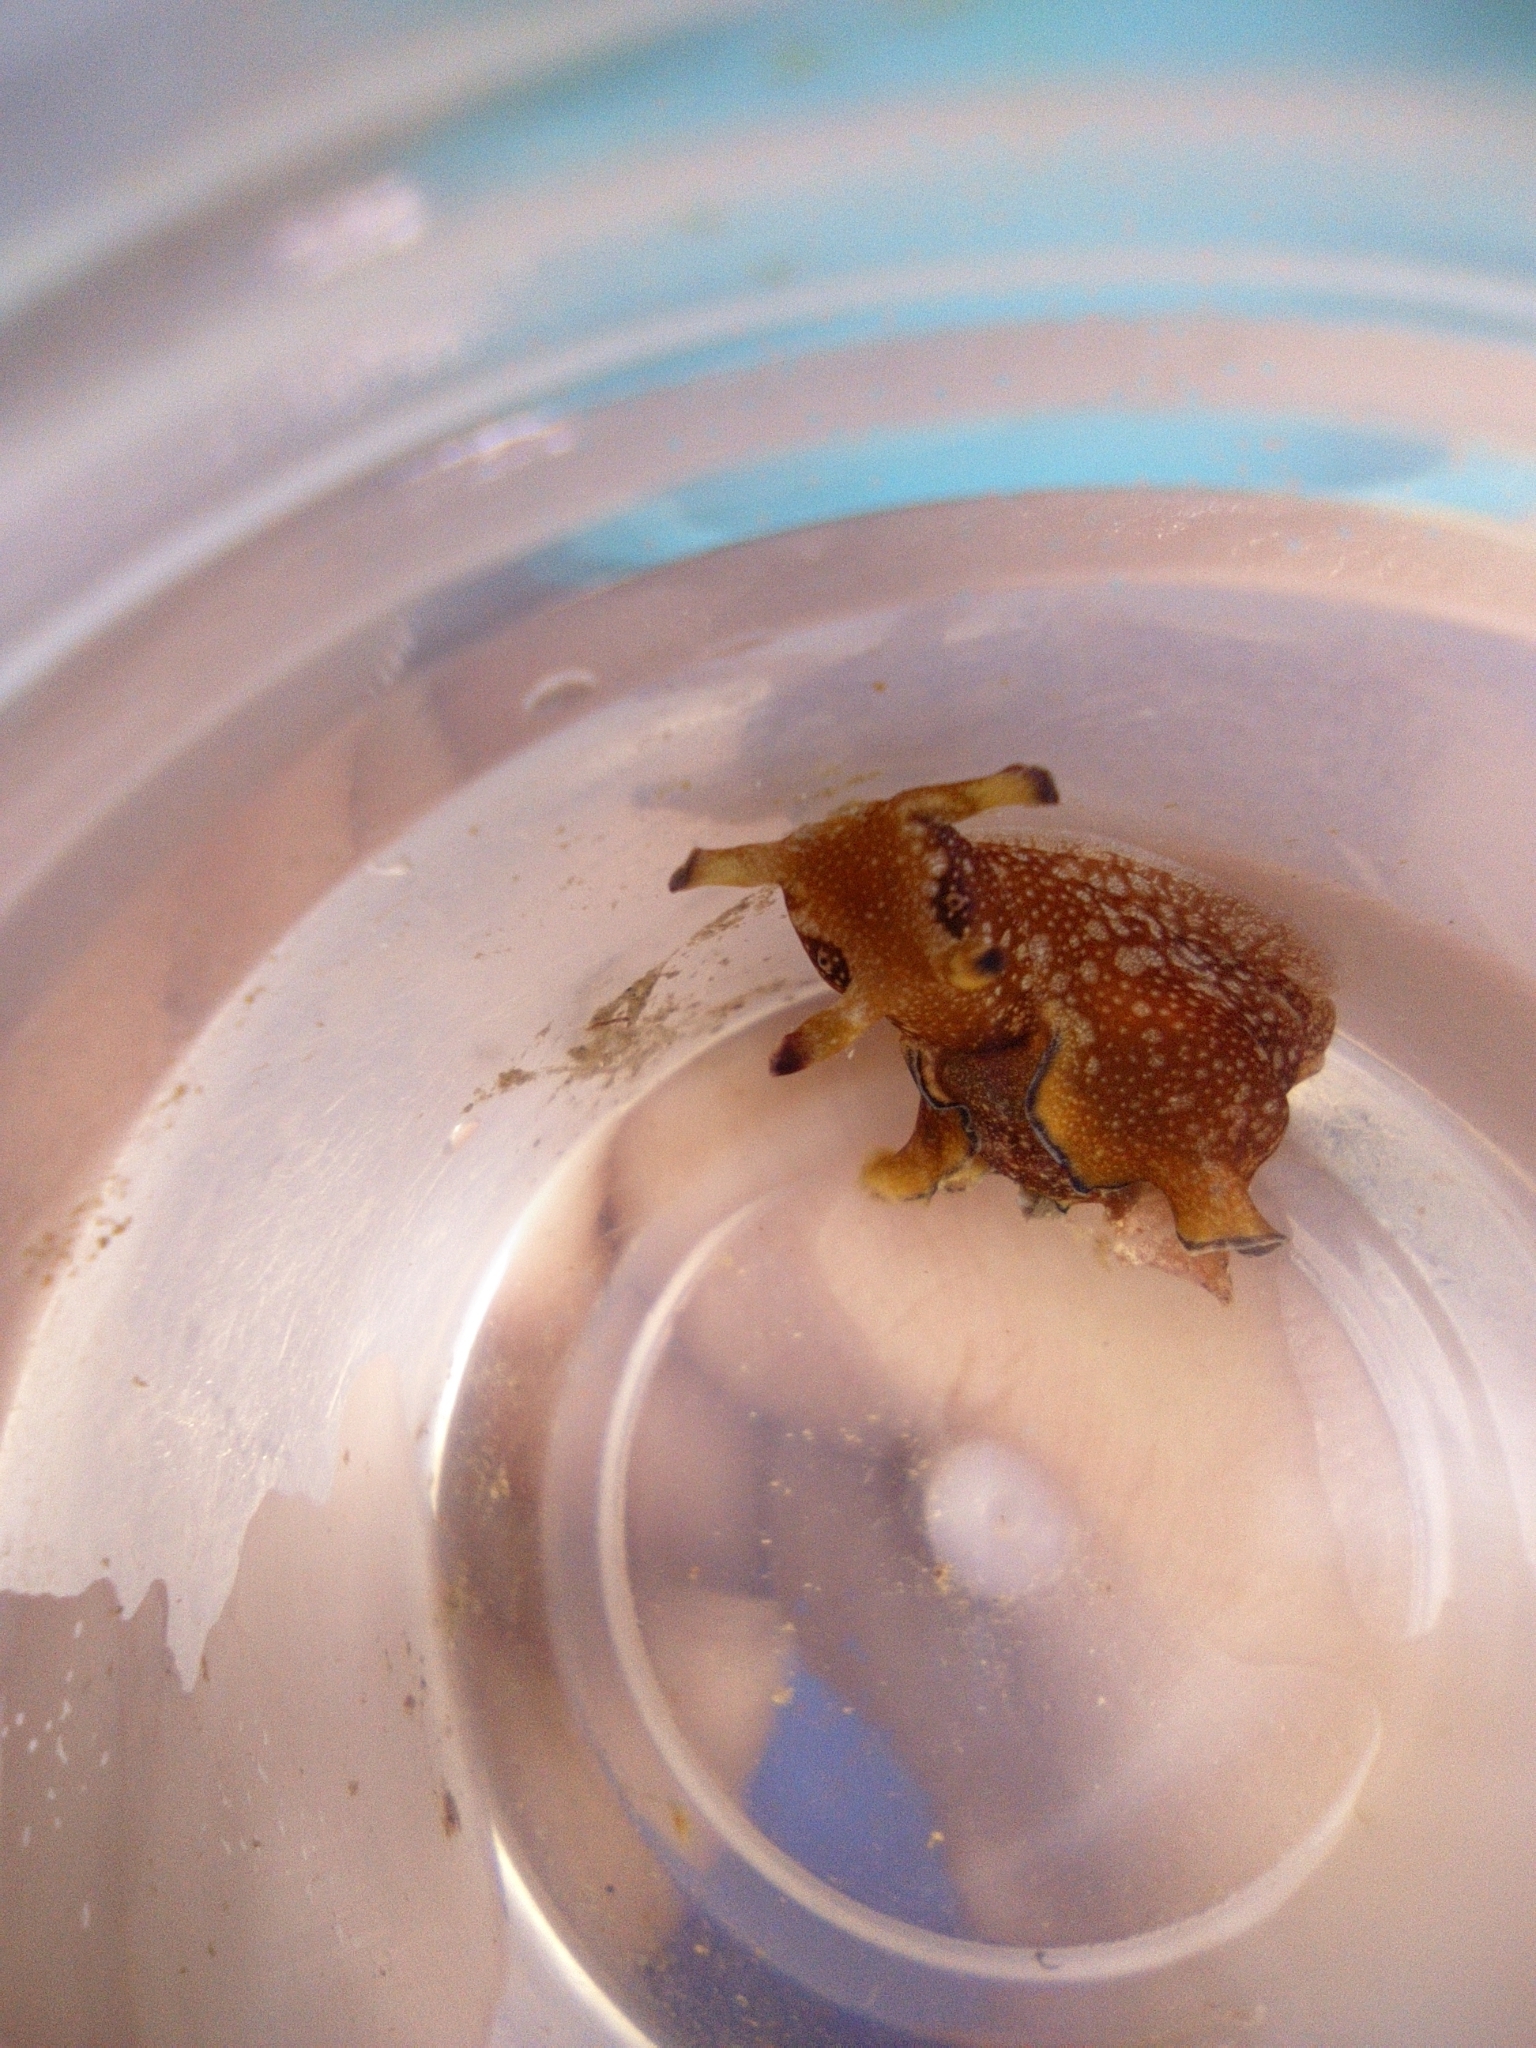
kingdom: Animalia
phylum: Mollusca
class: Gastropoda
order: Aplysiida
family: Aplysiidae
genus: Aplysia
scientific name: Aplysia parvula
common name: Dwarf sea hare
